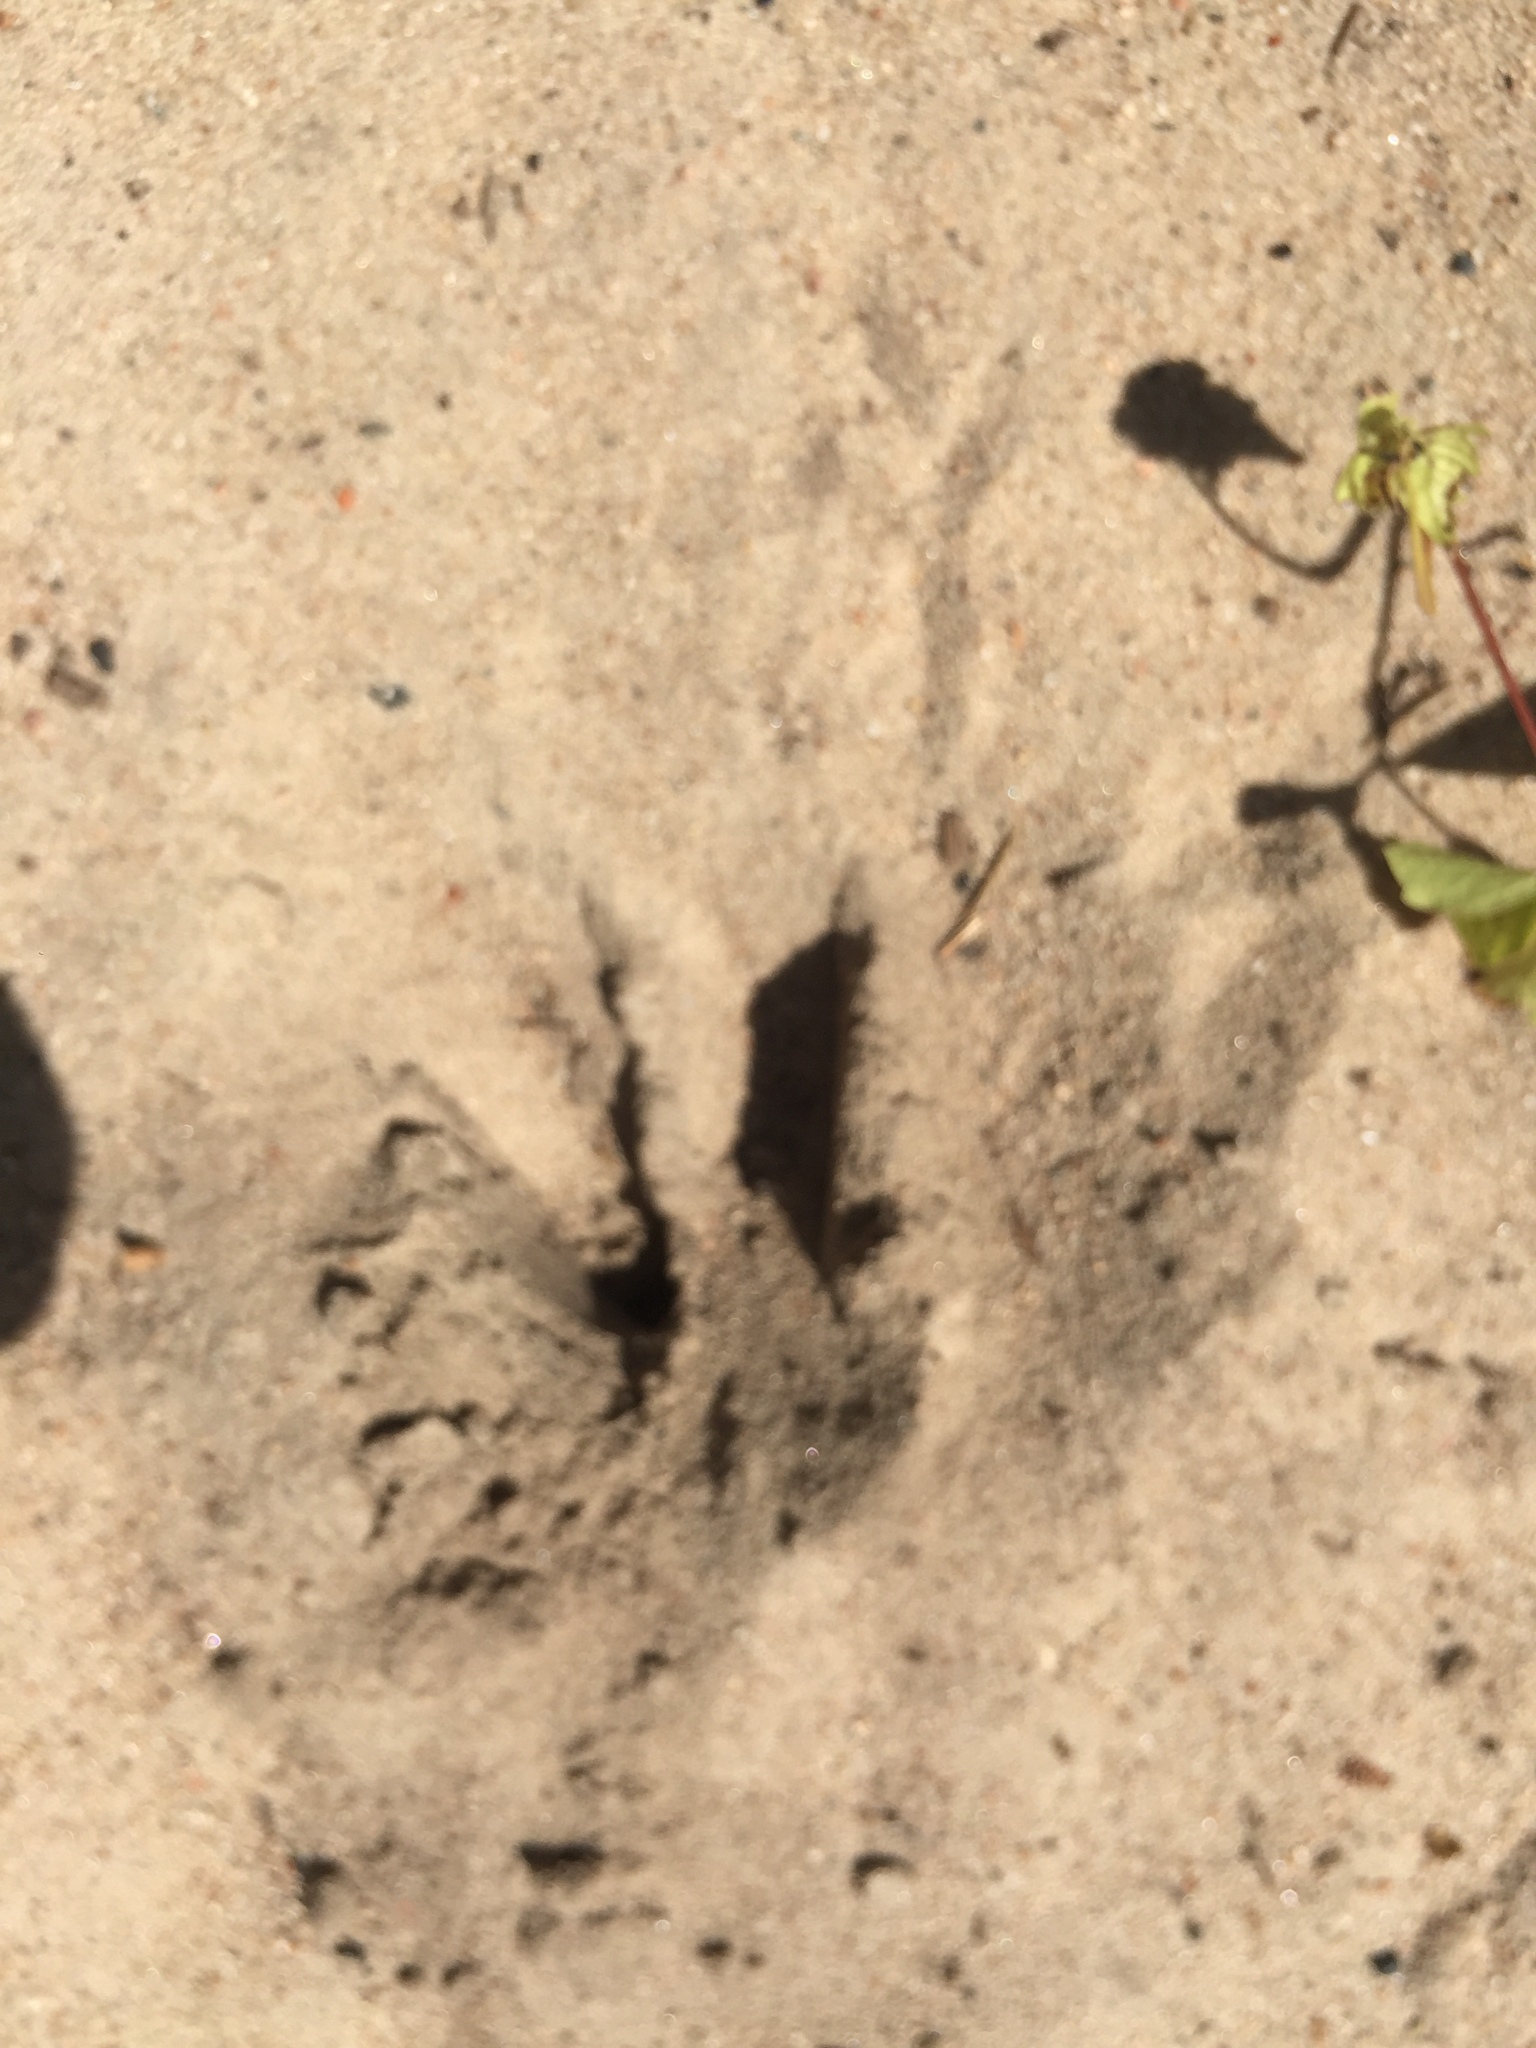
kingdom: Animalia
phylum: Chordata
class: Mammalia
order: Artiodactyla
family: Cervidae
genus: Odocoileus
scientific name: Odocoileus virginianus
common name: White-tailed deer
